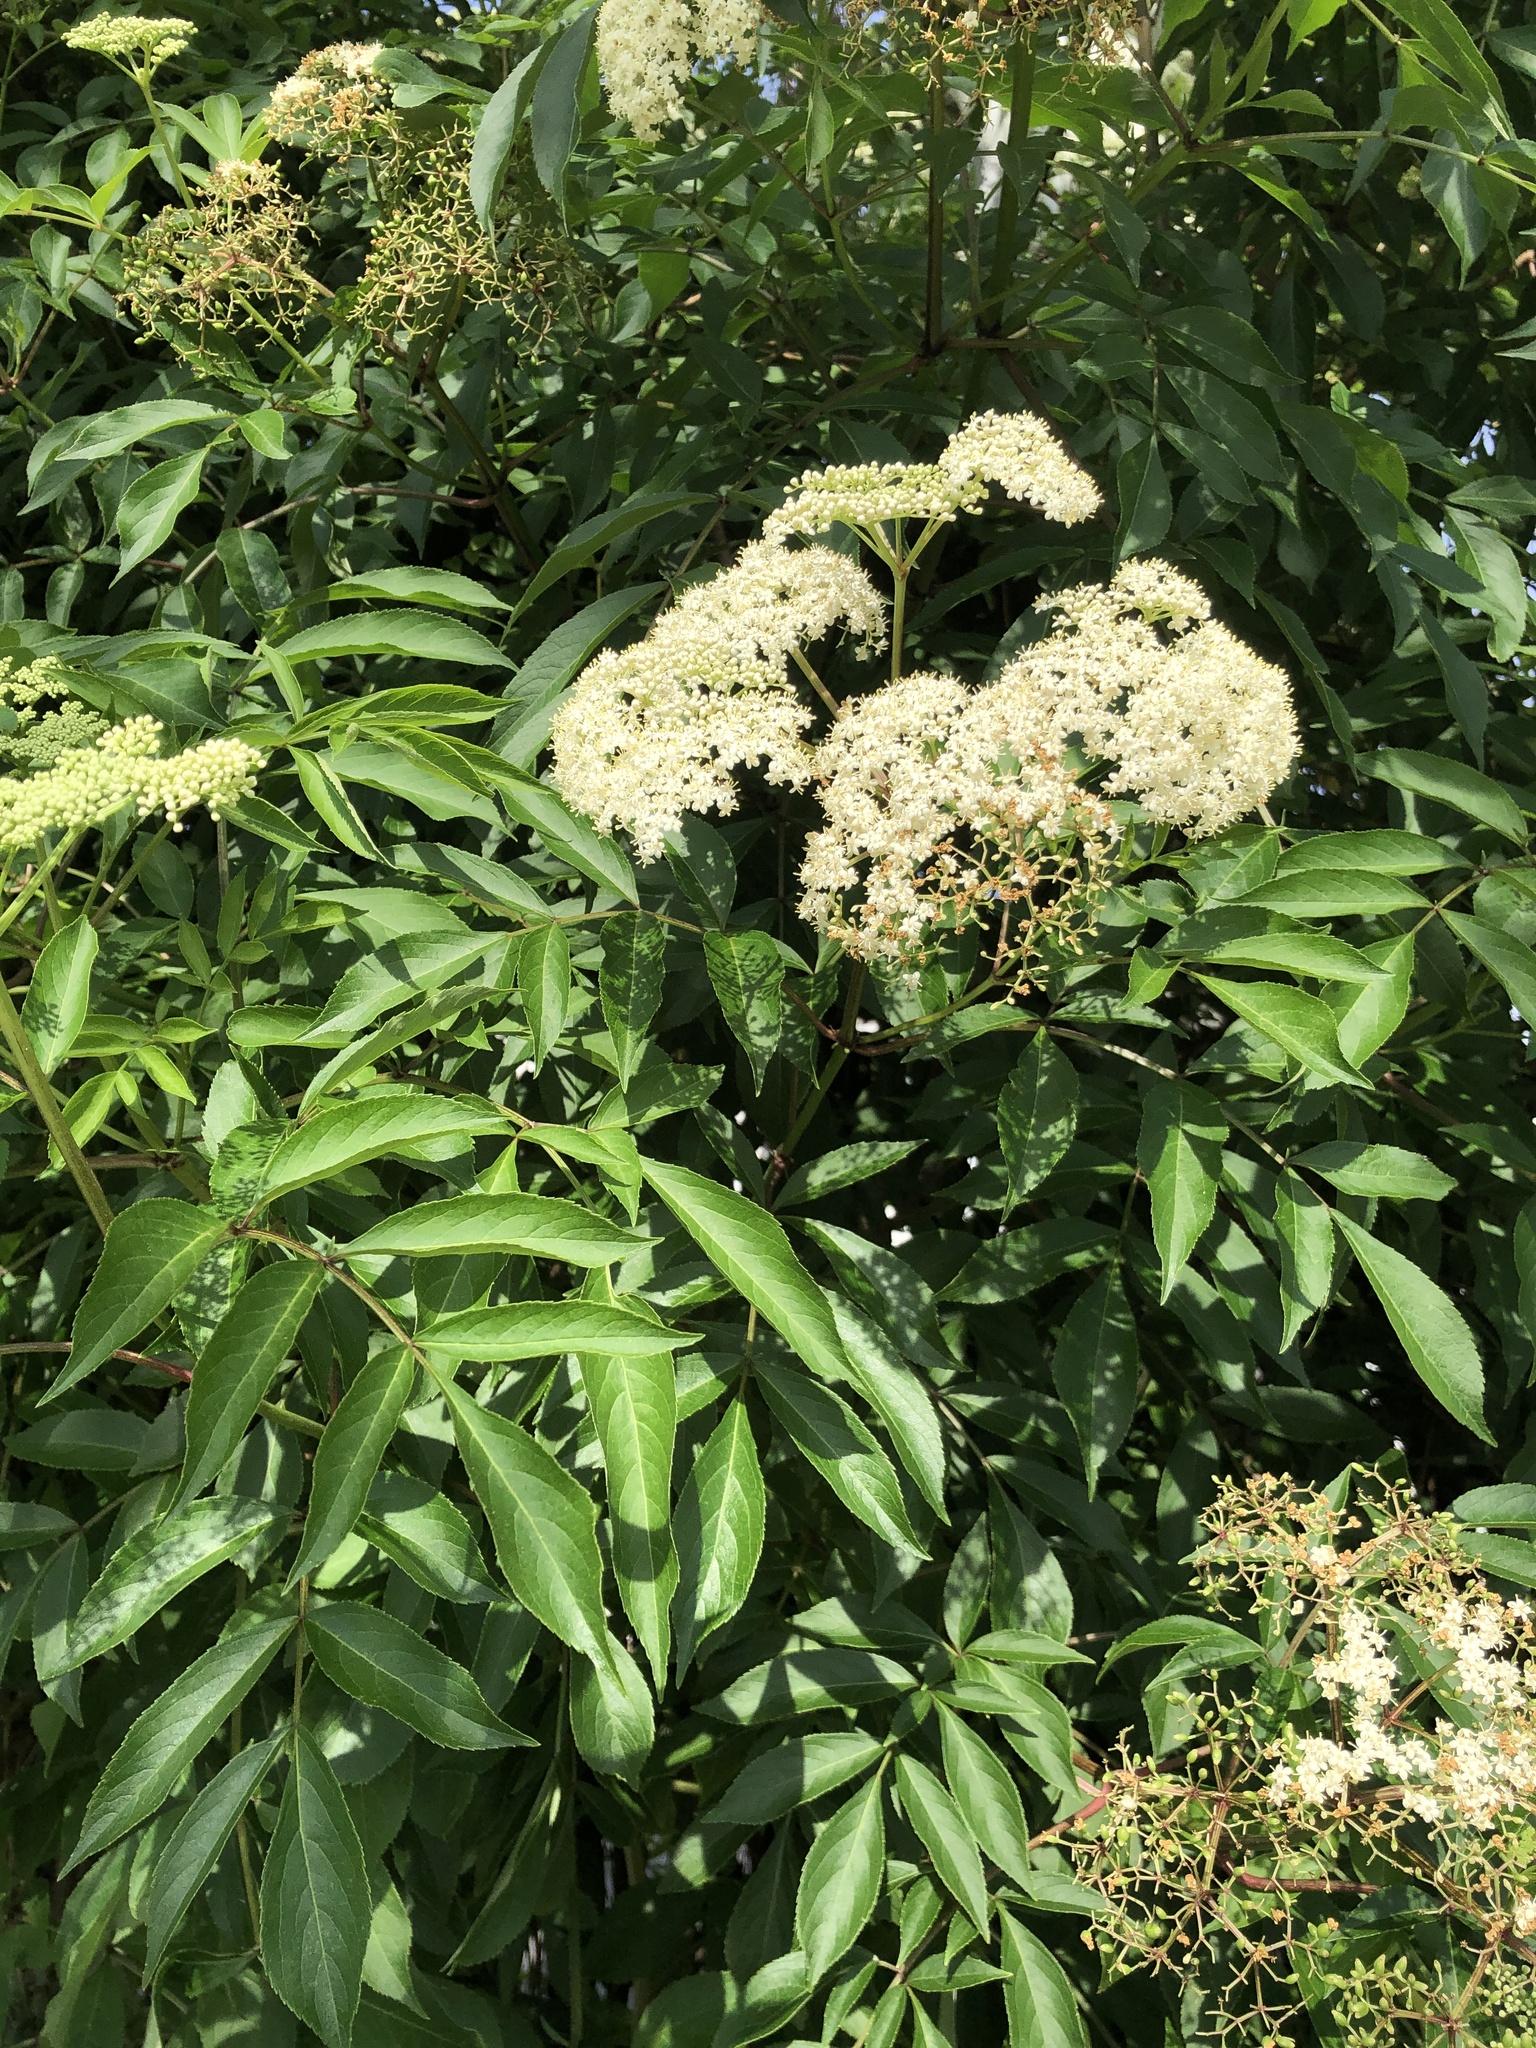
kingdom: Plantae
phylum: Tracheophyta
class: Magnoliopsida
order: Dipsacales
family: Viburnaceae
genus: Sambucus
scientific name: Sambucus canadensis
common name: American elder
